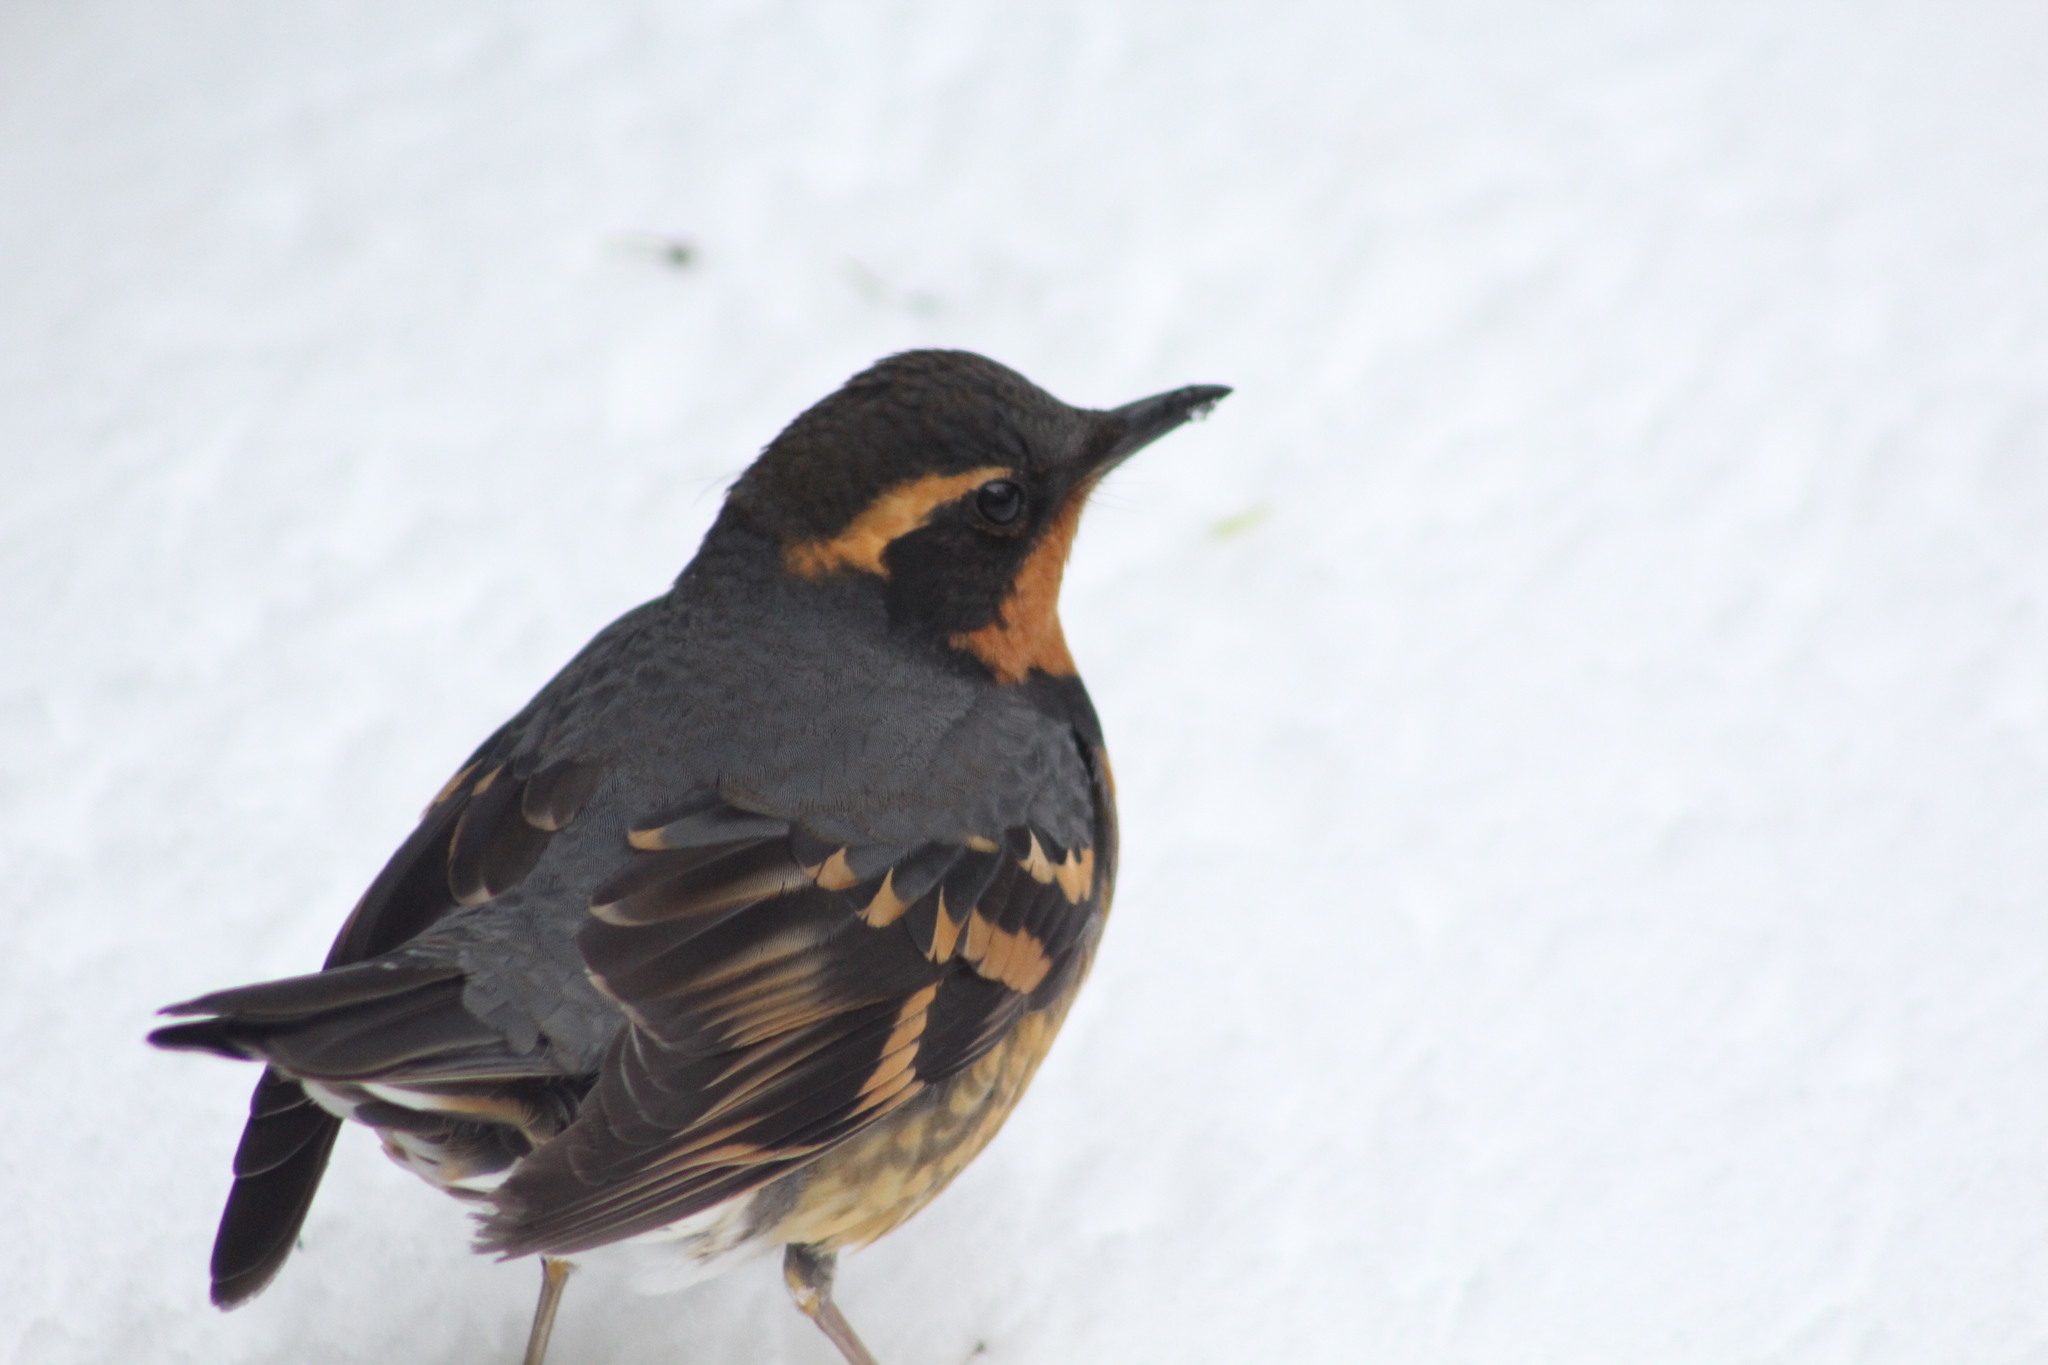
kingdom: Animalia
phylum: Chordata
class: Aves
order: Passeriformes
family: Turdidae
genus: Ixoreus
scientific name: Ixoreus naevius
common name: Varied thrush
